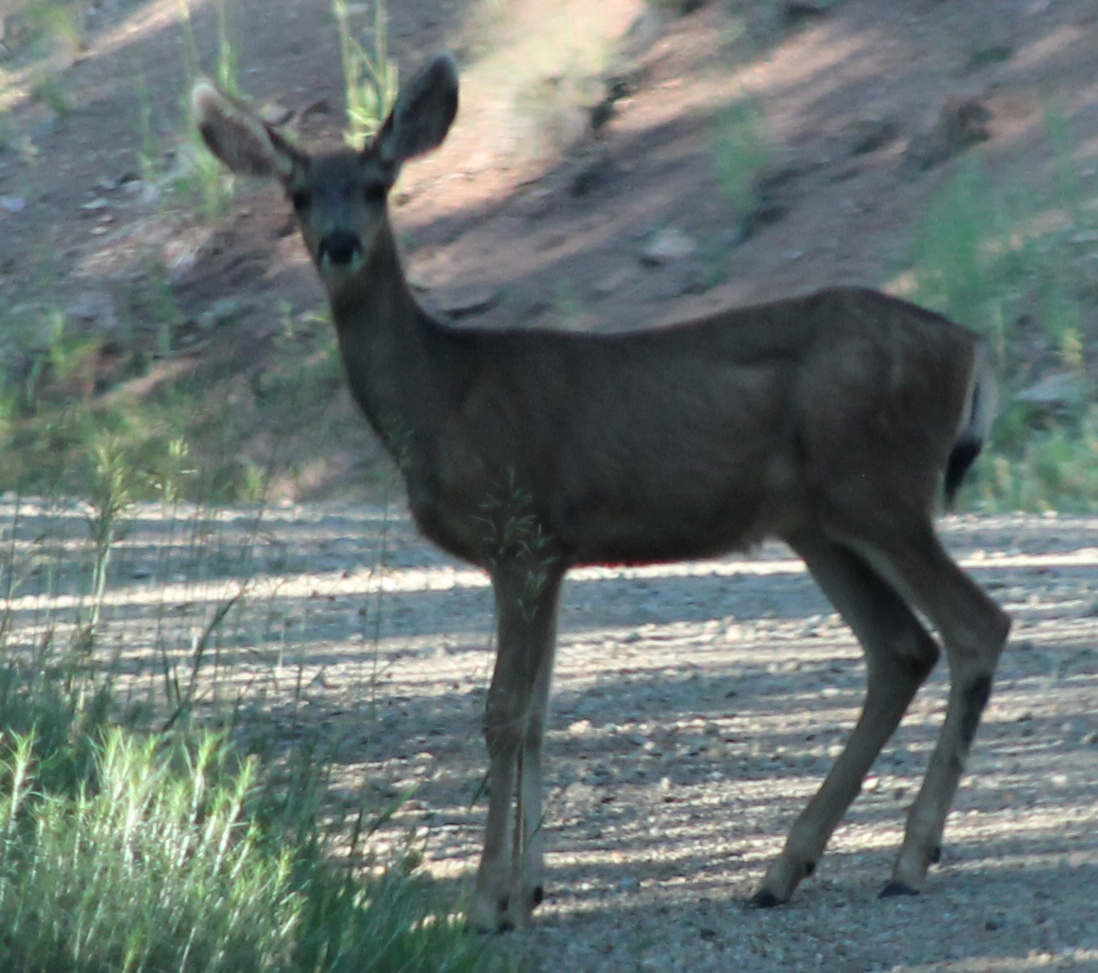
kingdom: Animalia
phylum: Chordata
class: Mammalia
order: Artiodactyla
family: Cervidae
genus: Odocoileus
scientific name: Odocoileus hemionus
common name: Mule deer
